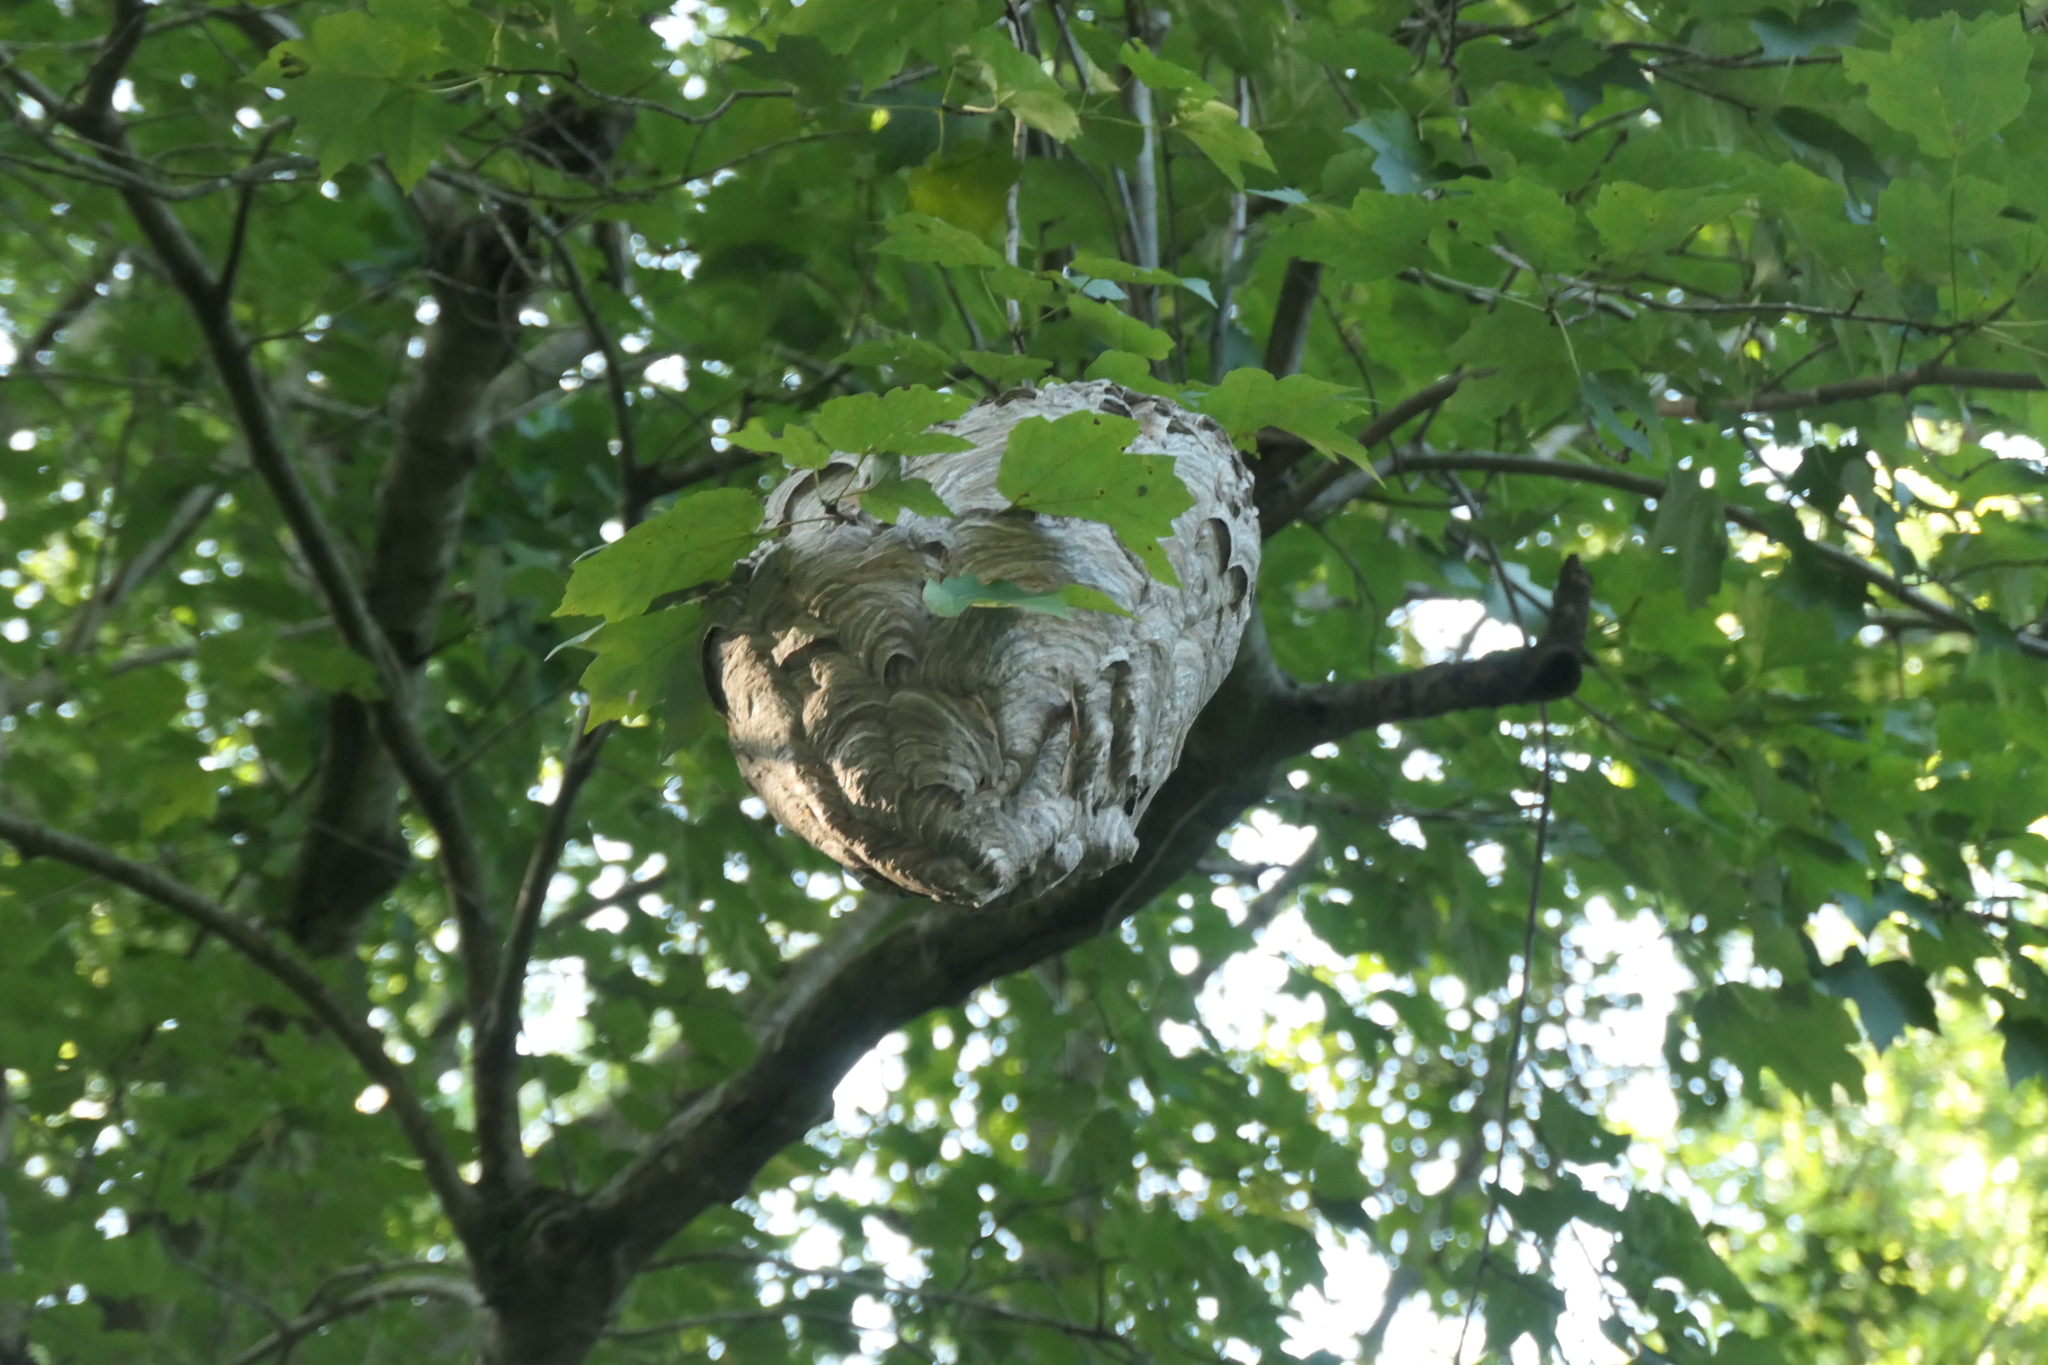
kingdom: Animalia
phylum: Arthropoda
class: Insecta
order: Hymenoptera
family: Vespidae
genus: Dolichovespula
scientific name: Dolichovespula maculata
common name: Bald-faced hornet
